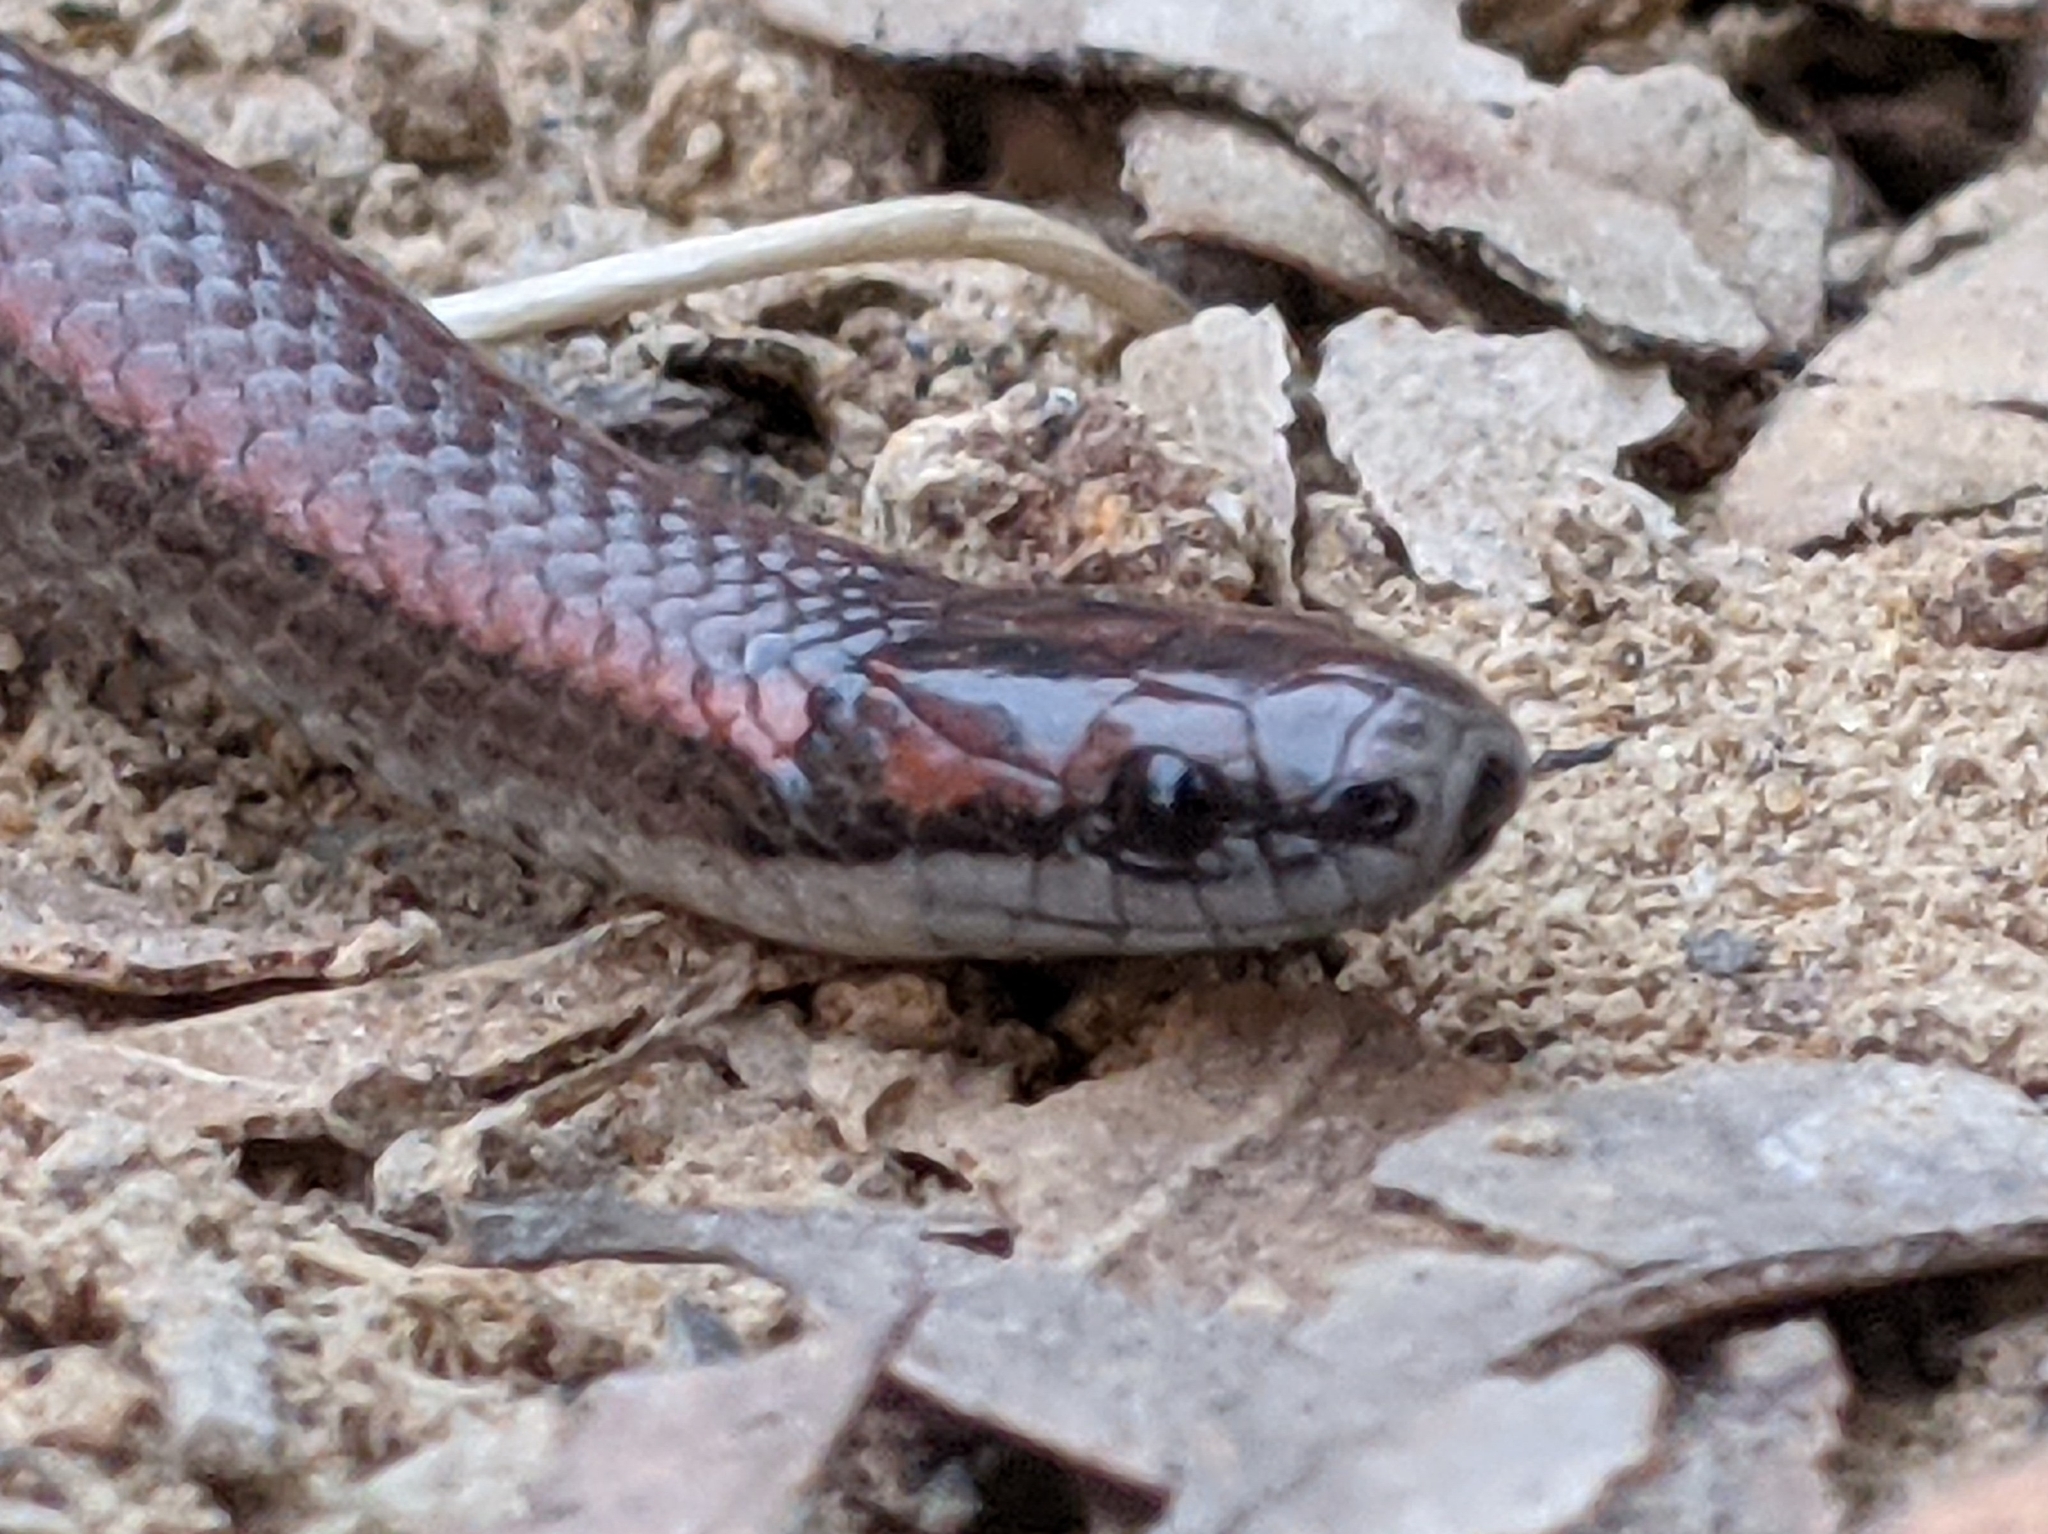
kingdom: Animalia
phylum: Chordata
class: Squamata
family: Colubridae
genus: Contia
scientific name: Contia tenuis
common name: Sharptail snake
